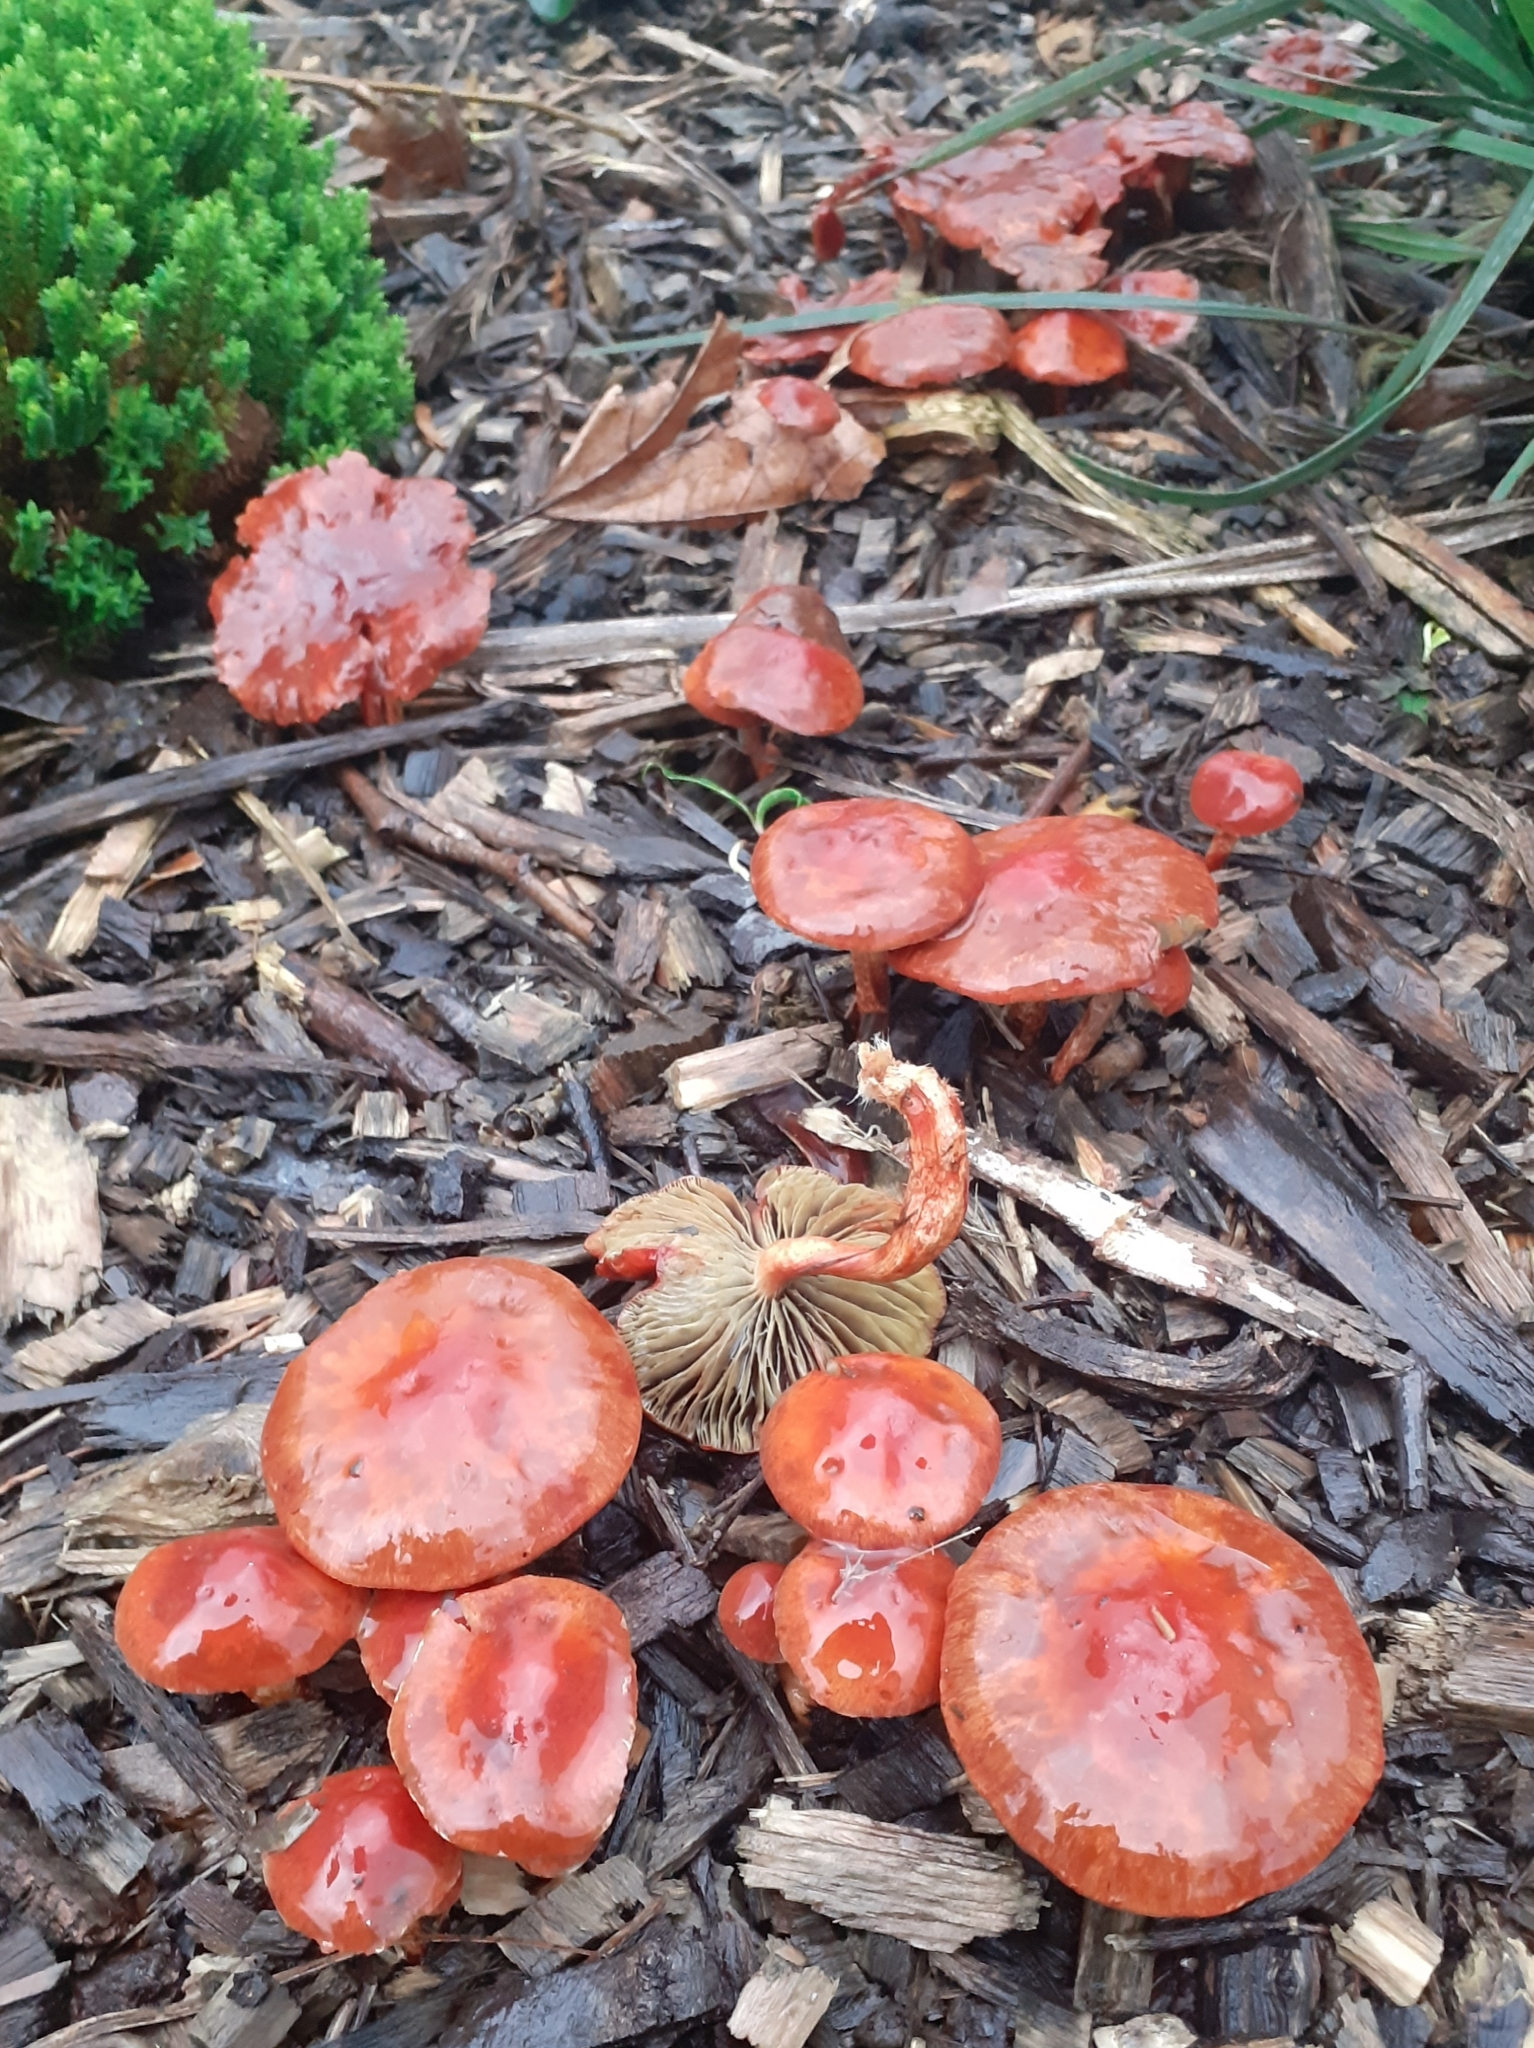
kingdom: Fungi
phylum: Basidiomycota
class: Agaricomycetes
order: Agaricales
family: Strophariaceae
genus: Leratiomyces
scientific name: Leratiomyces ceres
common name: Redlead roundhead
